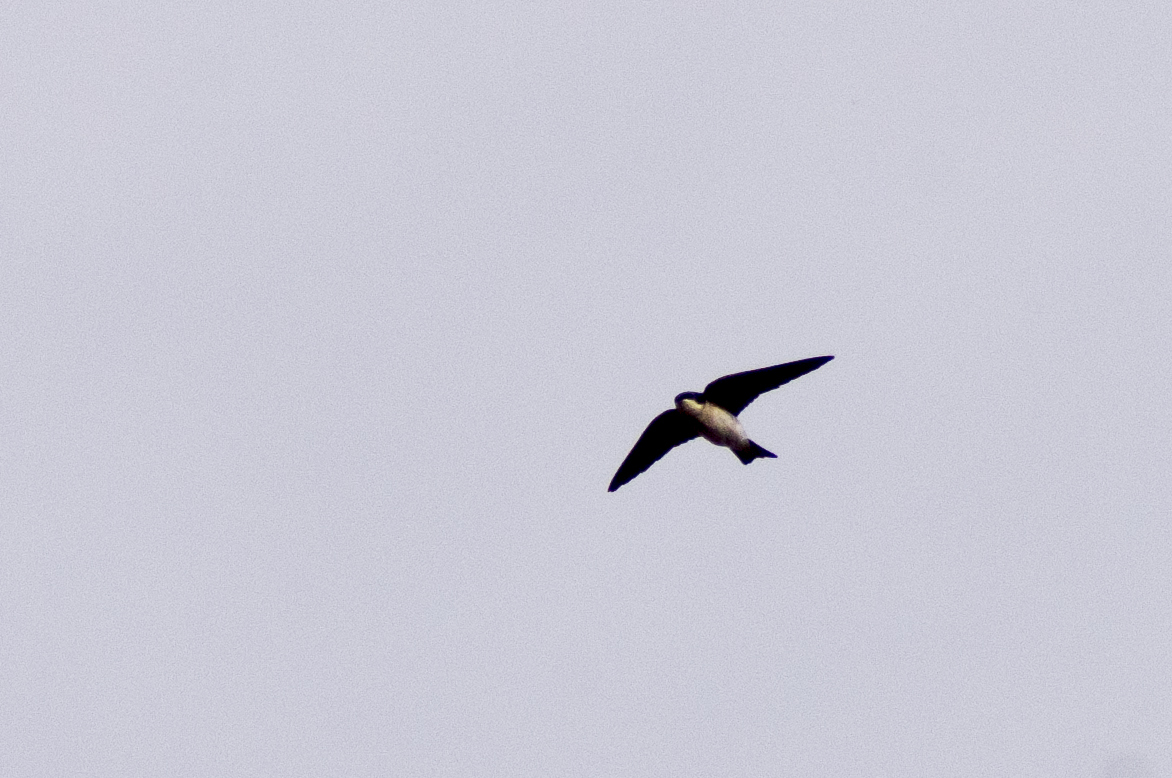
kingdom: Animalia
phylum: Chordata
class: Aves
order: Passeriformes
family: Hirundinidae
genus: Tachycineta
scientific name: Tachycineta bicolor
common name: Tree swallow
